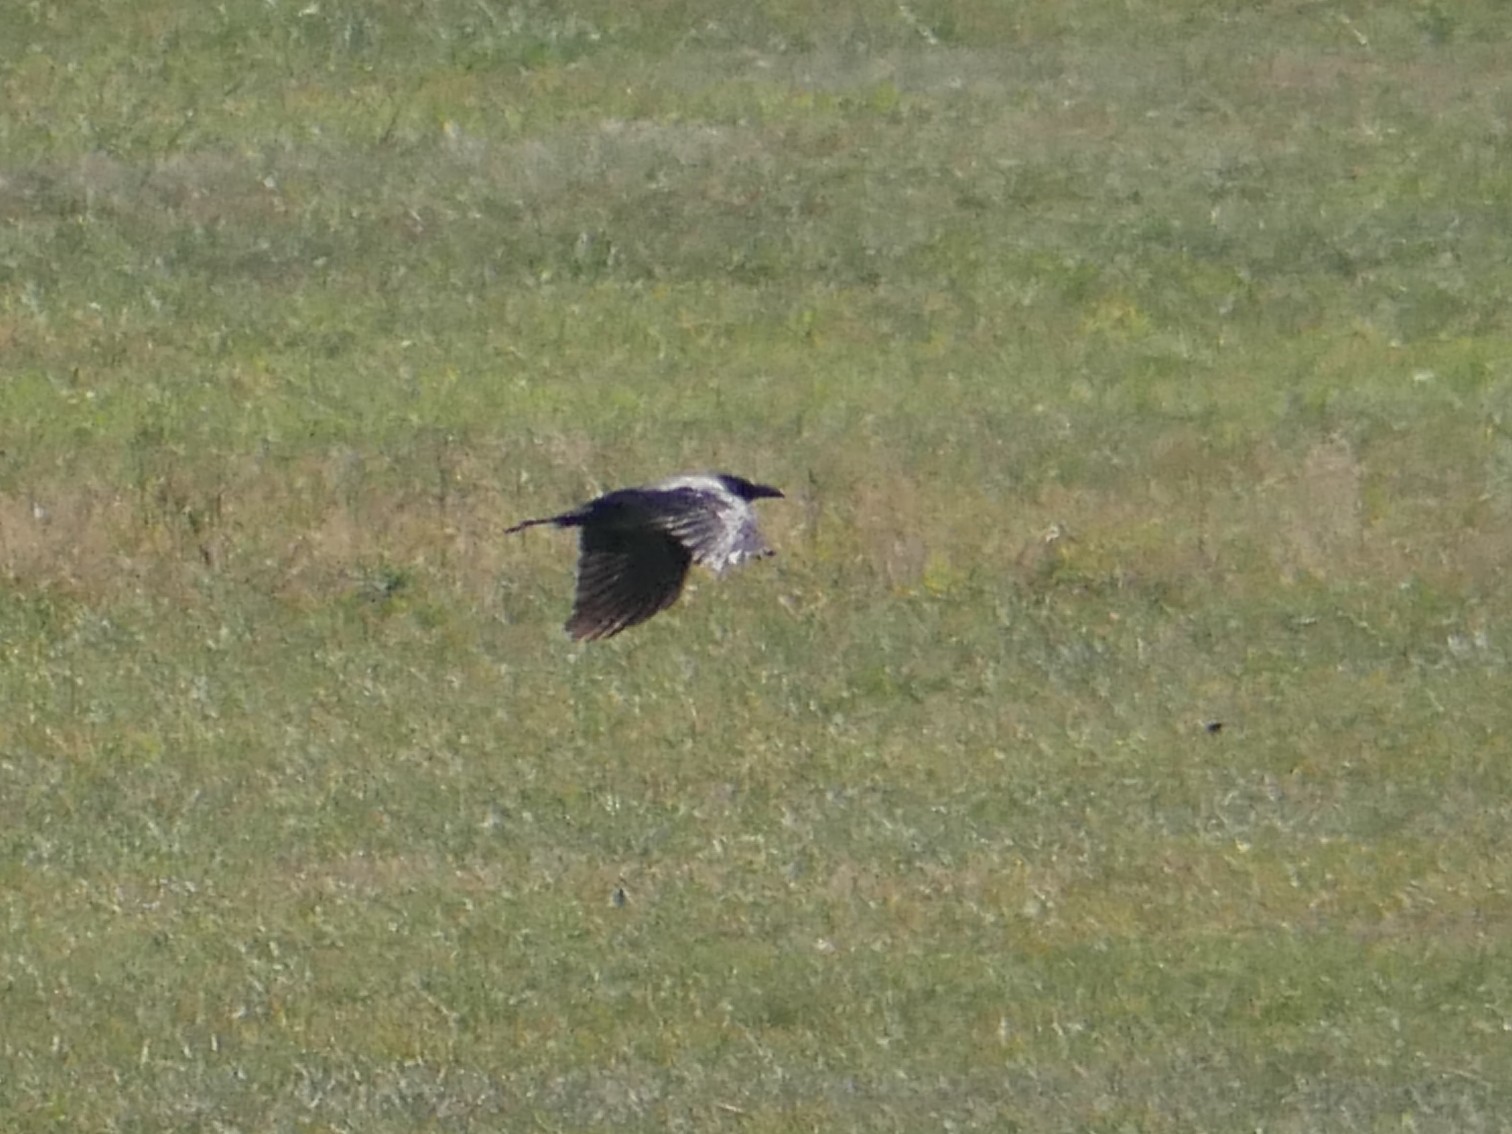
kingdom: Animalia
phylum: Chordata
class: Aves
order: Passeriformes
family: Corvidae
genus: Corvus
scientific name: Corvus cornix
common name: Hooded crow
